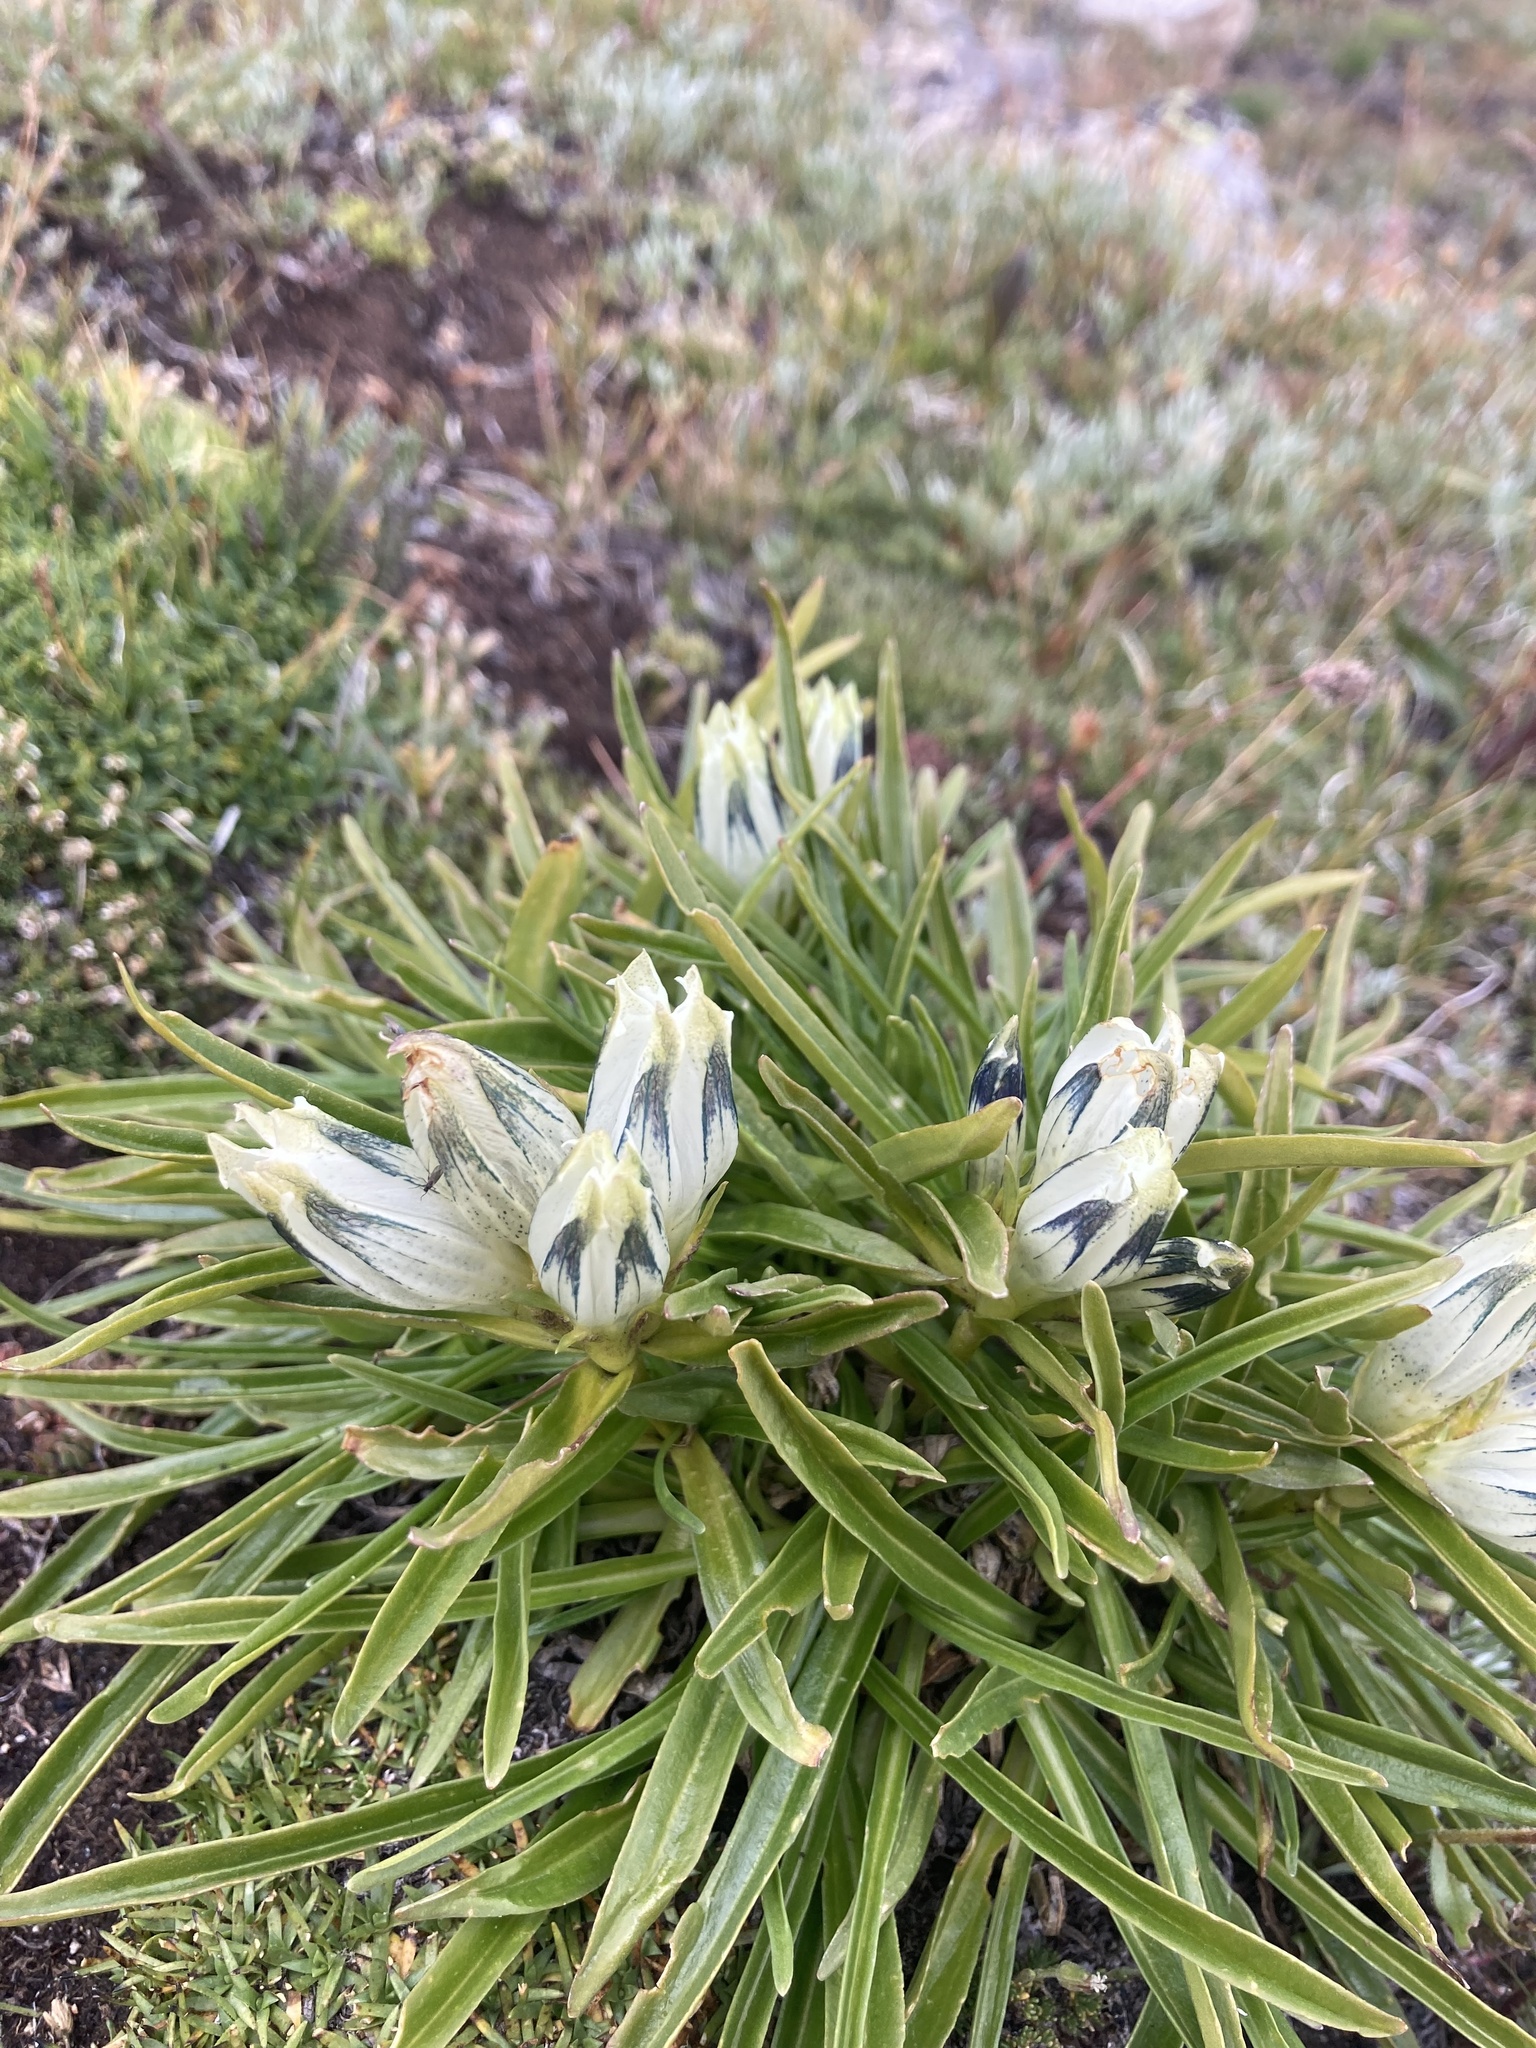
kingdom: Plantae
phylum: Tracheophyta
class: Magnoliopsida
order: Gentianales
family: Gentianaceae
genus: Gentiana
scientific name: Gentiana algida
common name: Arctic gentian
